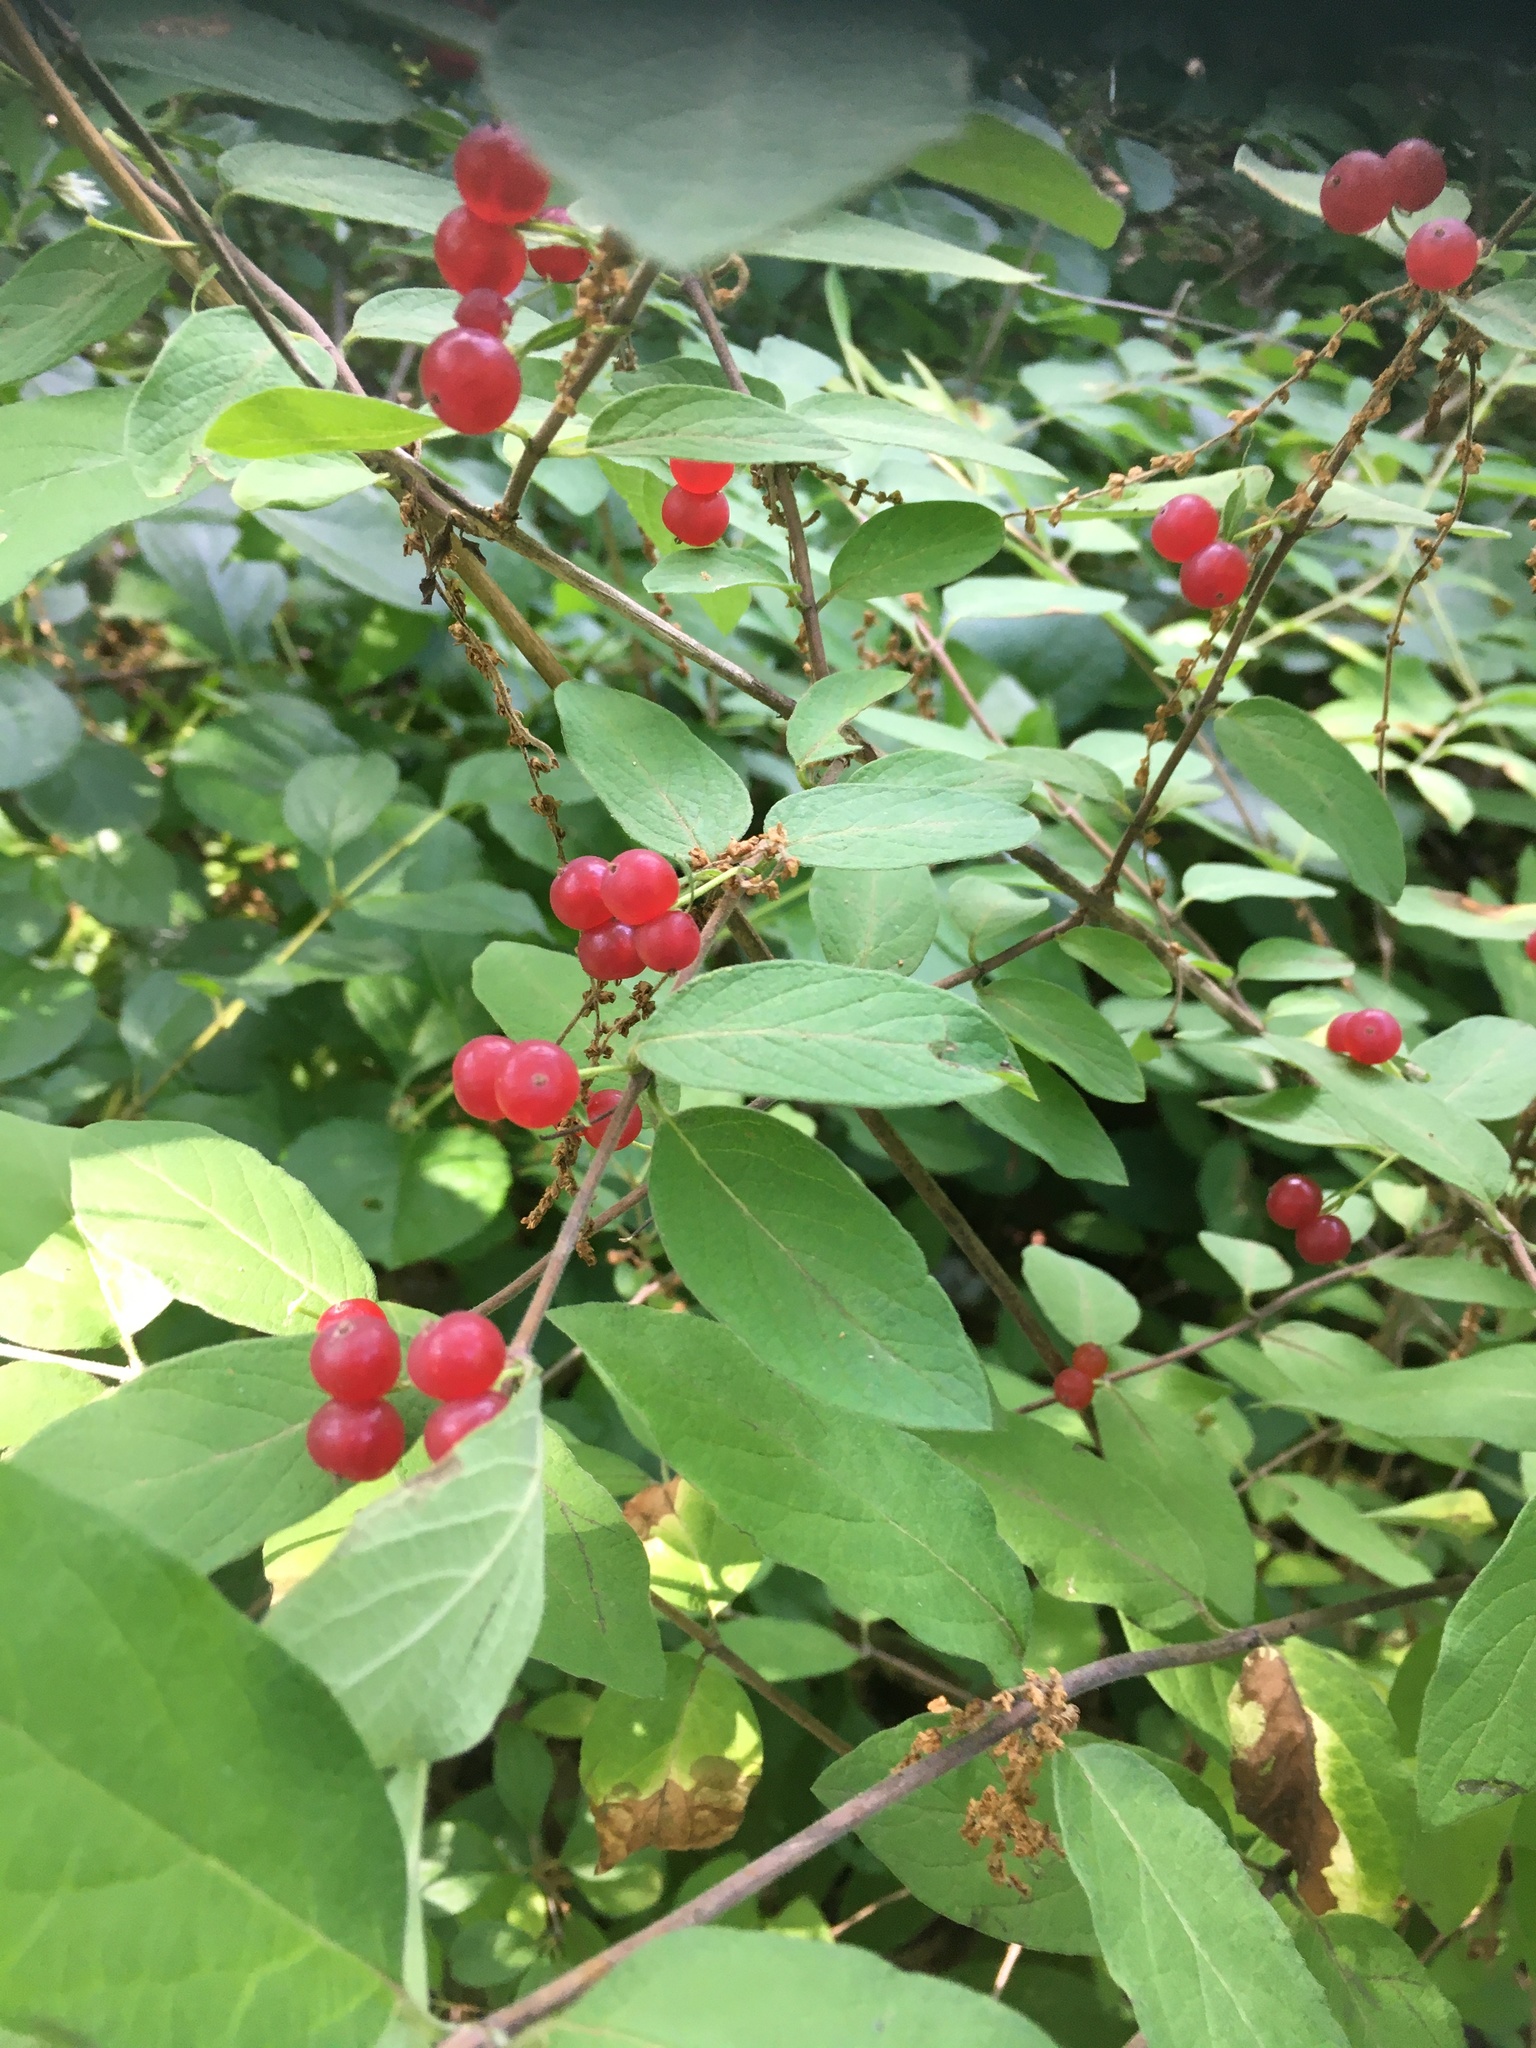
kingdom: Plantae
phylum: Tracheophyta
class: Magnoliopsida
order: Dipsacales
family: Caprifoliaceae
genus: Lonicera
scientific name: Lonicera morrowii
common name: Morrow's honeysuckle
